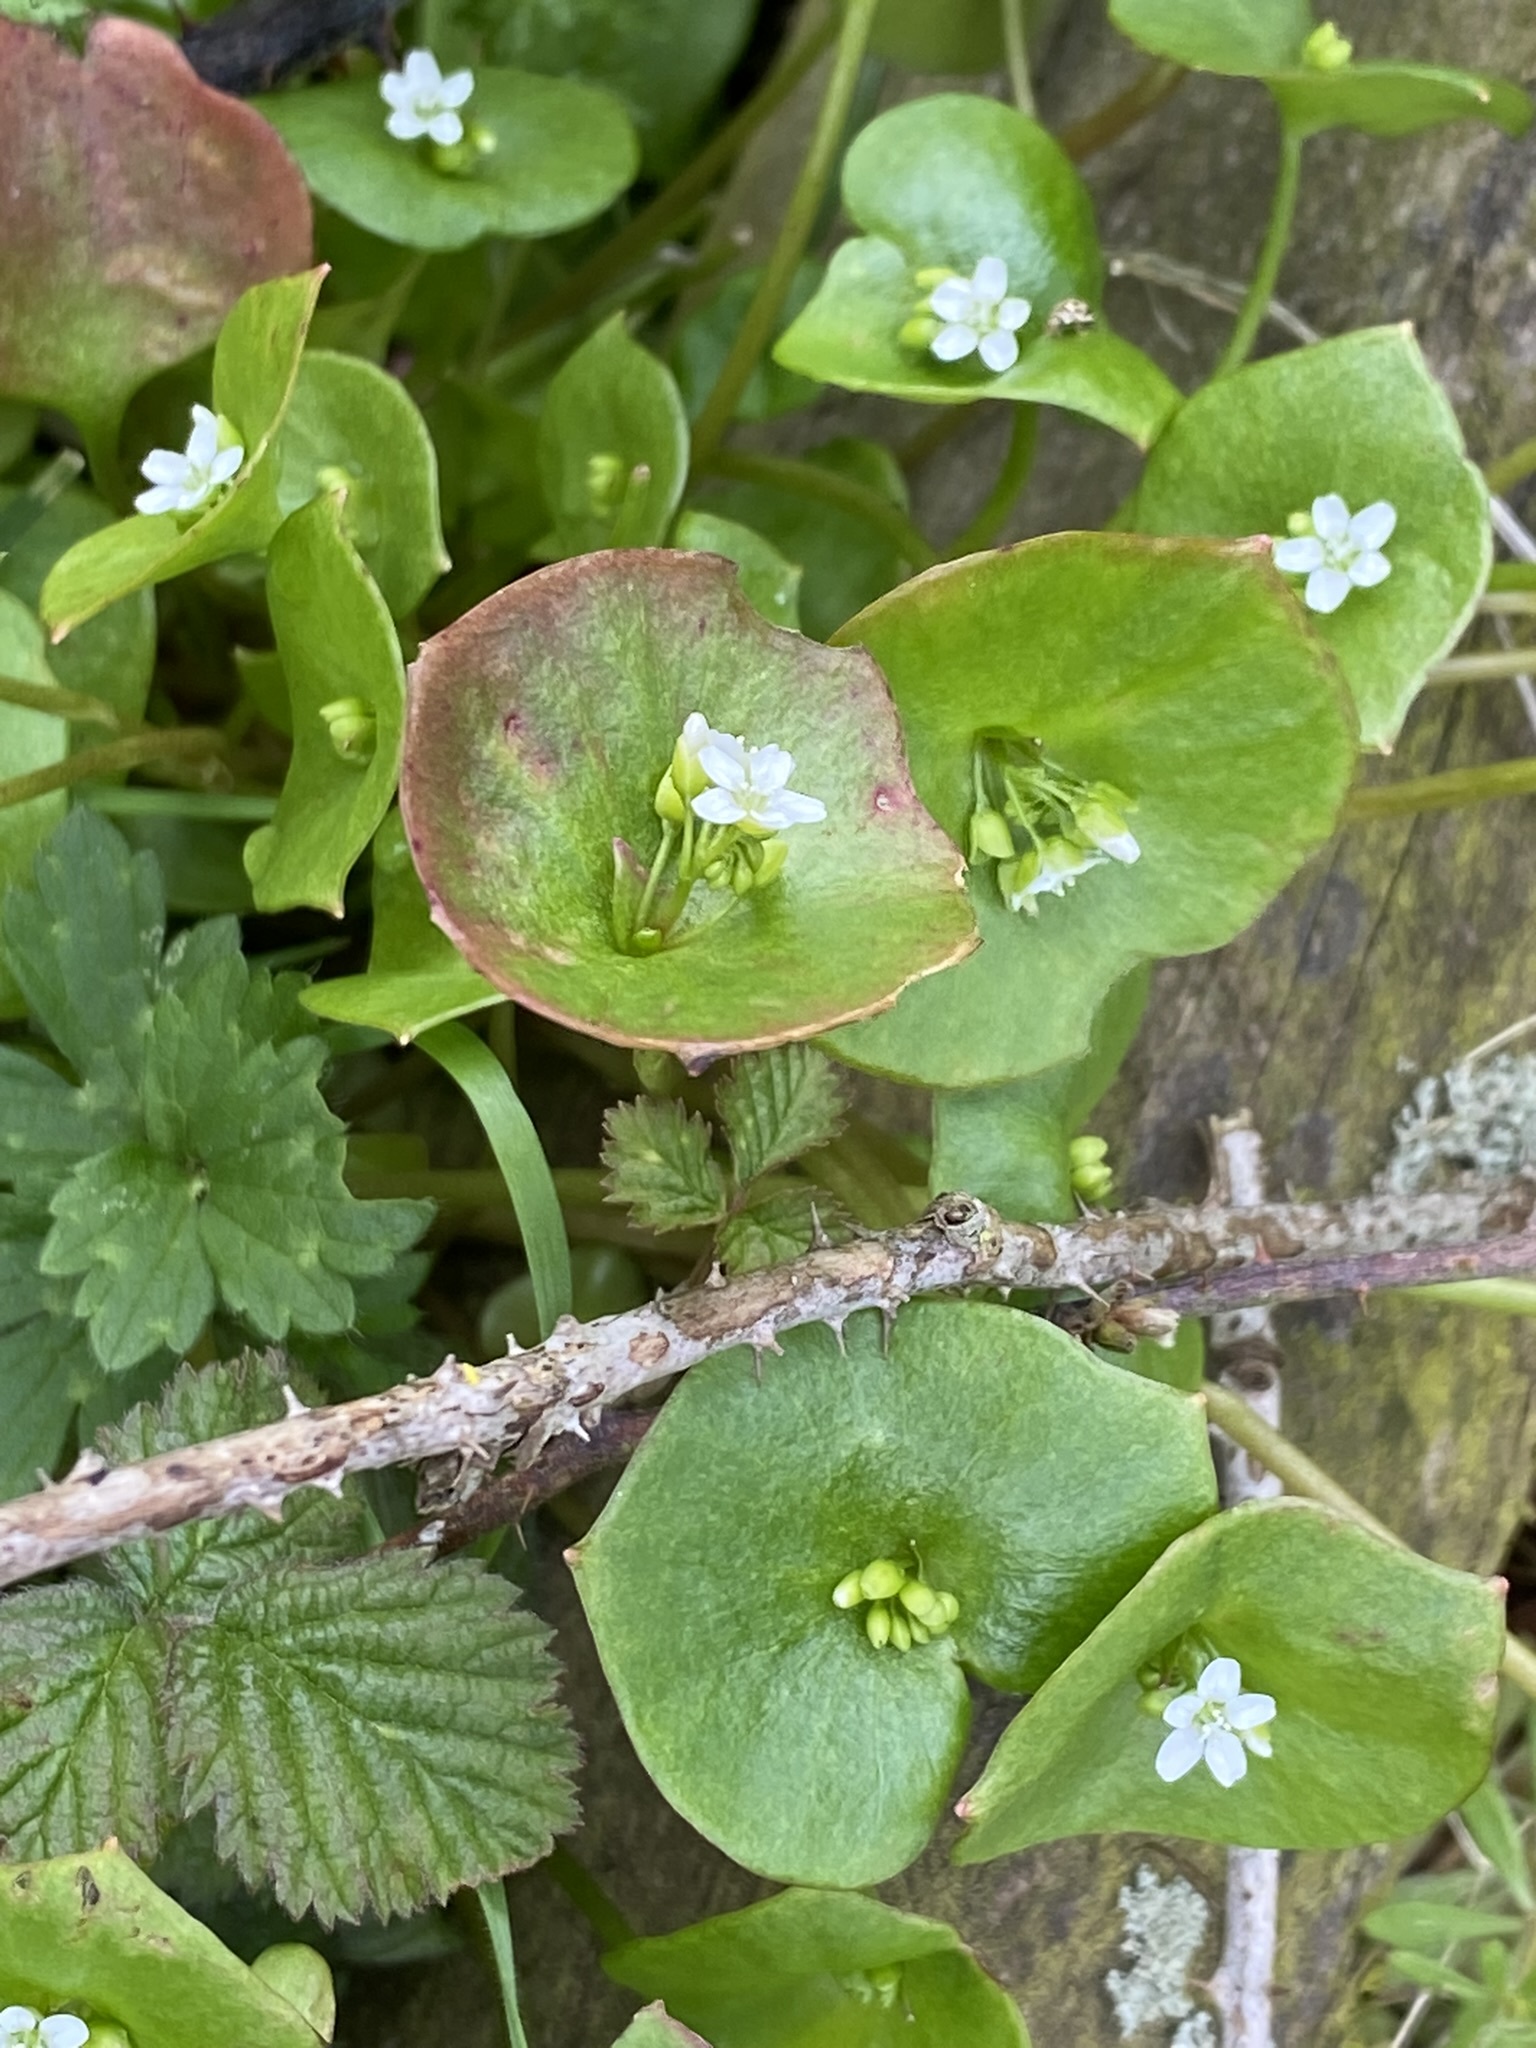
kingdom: Plantae
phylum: Tracheophyta
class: Magnoliopsida
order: Caryophyllales
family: Montiaceae
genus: Claytonia
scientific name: Claytonia perfoliata
